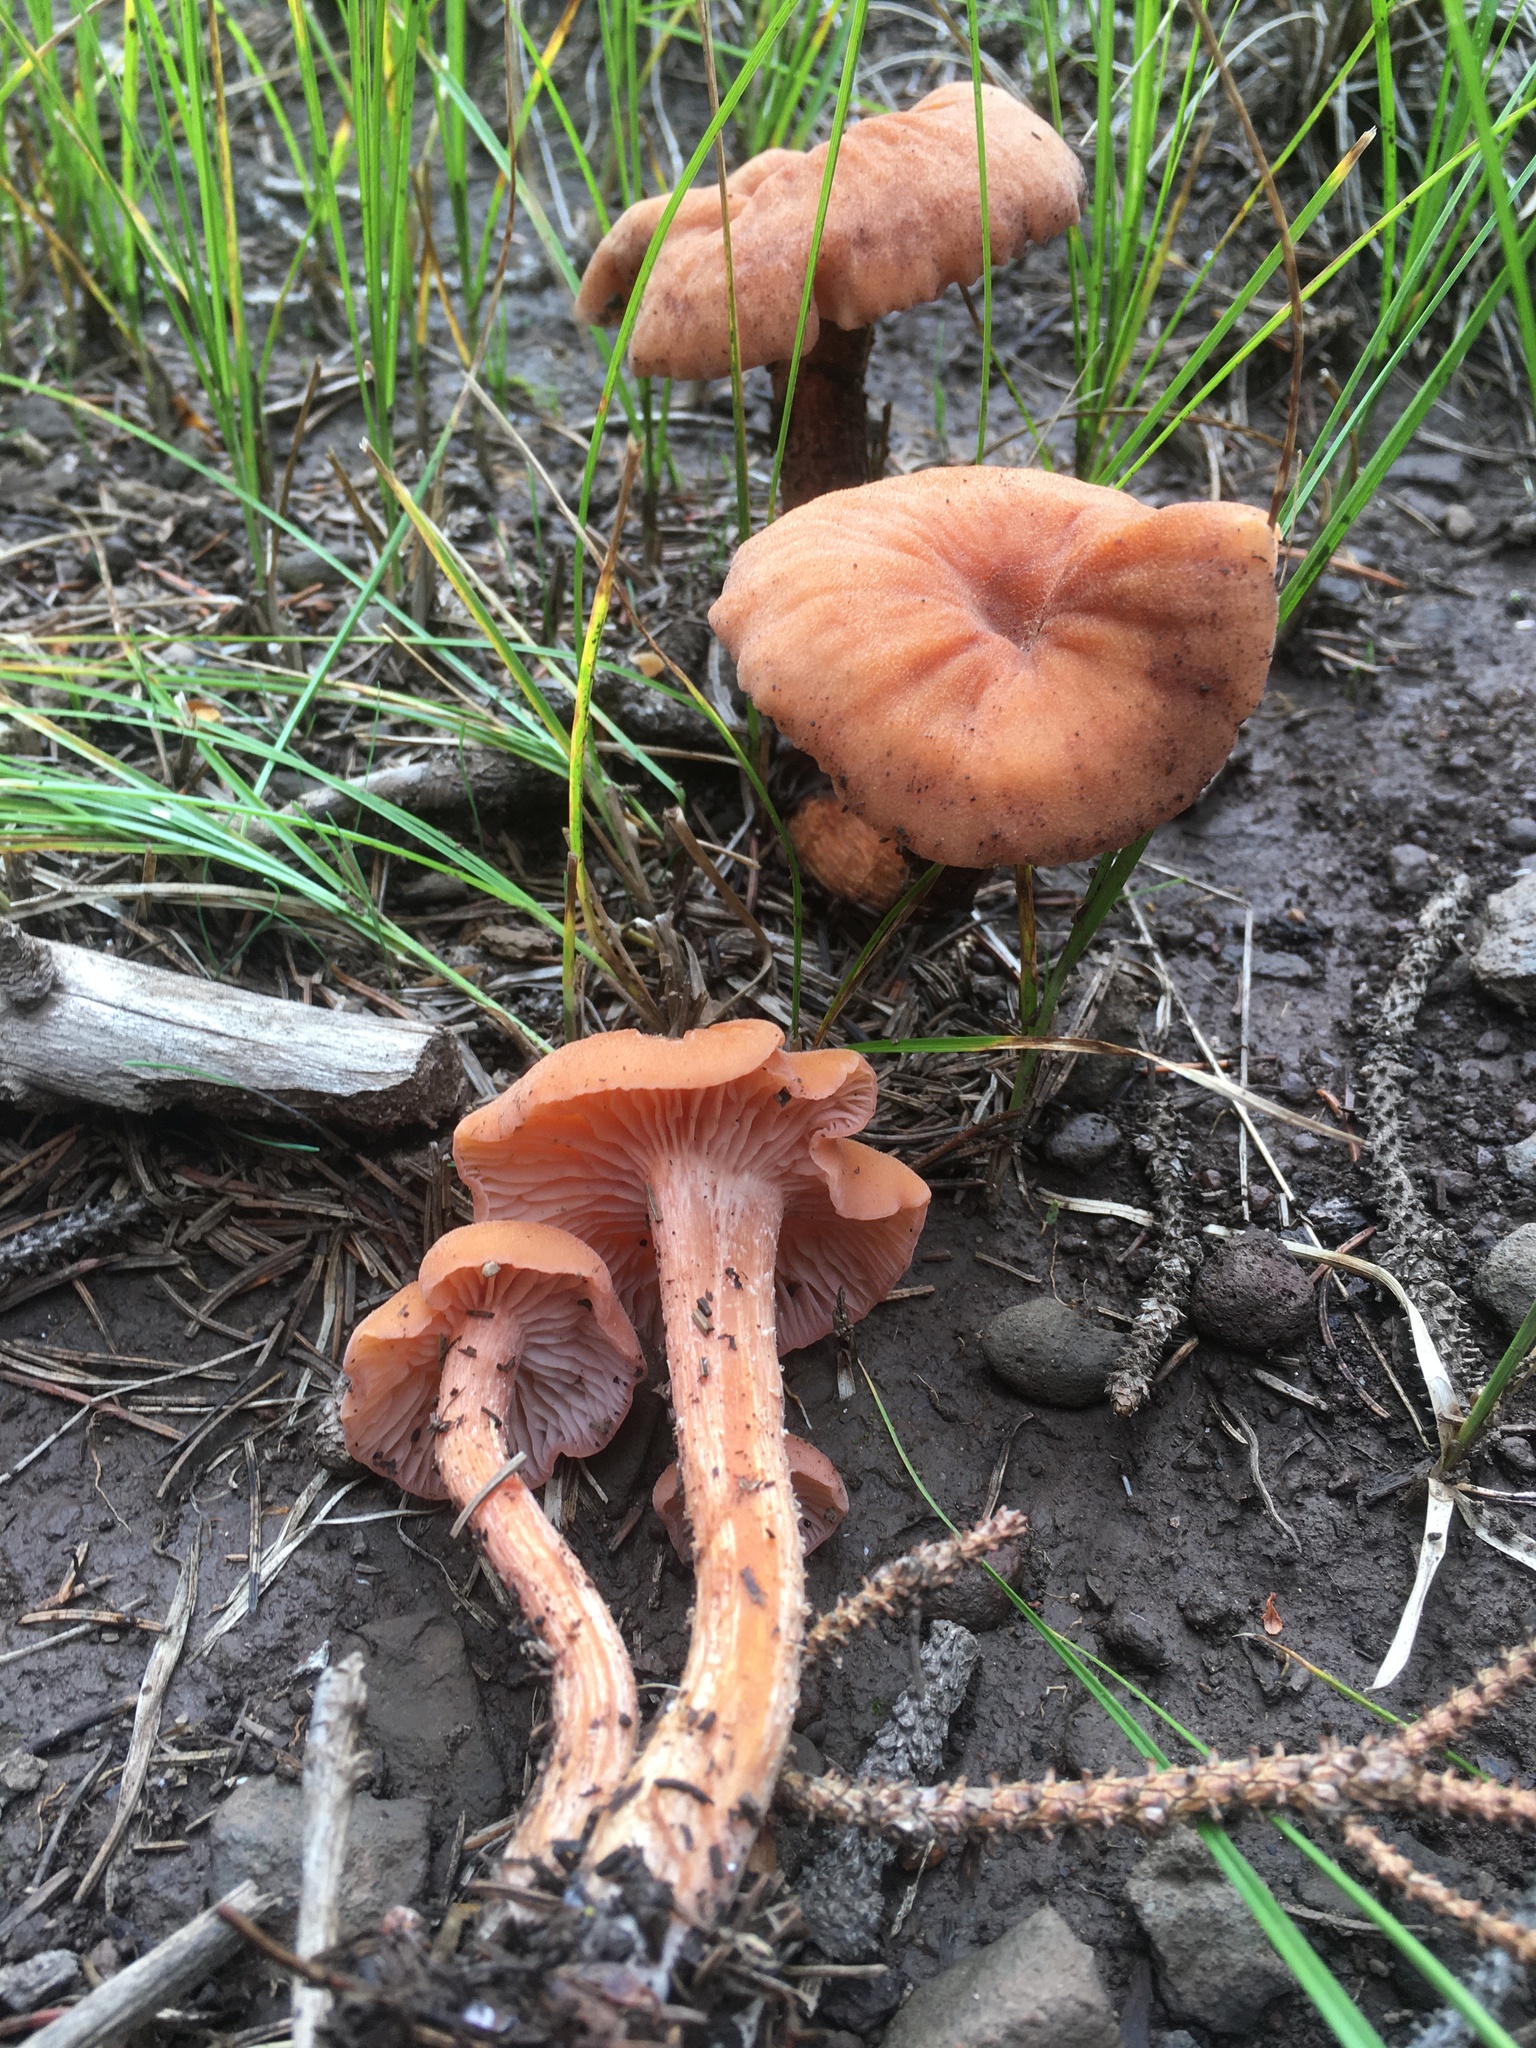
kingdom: Fungi
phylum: Basidiomycota
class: Agaricomycetes
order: Agaricales
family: Hydnangiaceae
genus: Laccaria
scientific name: Laccaria nobilis
